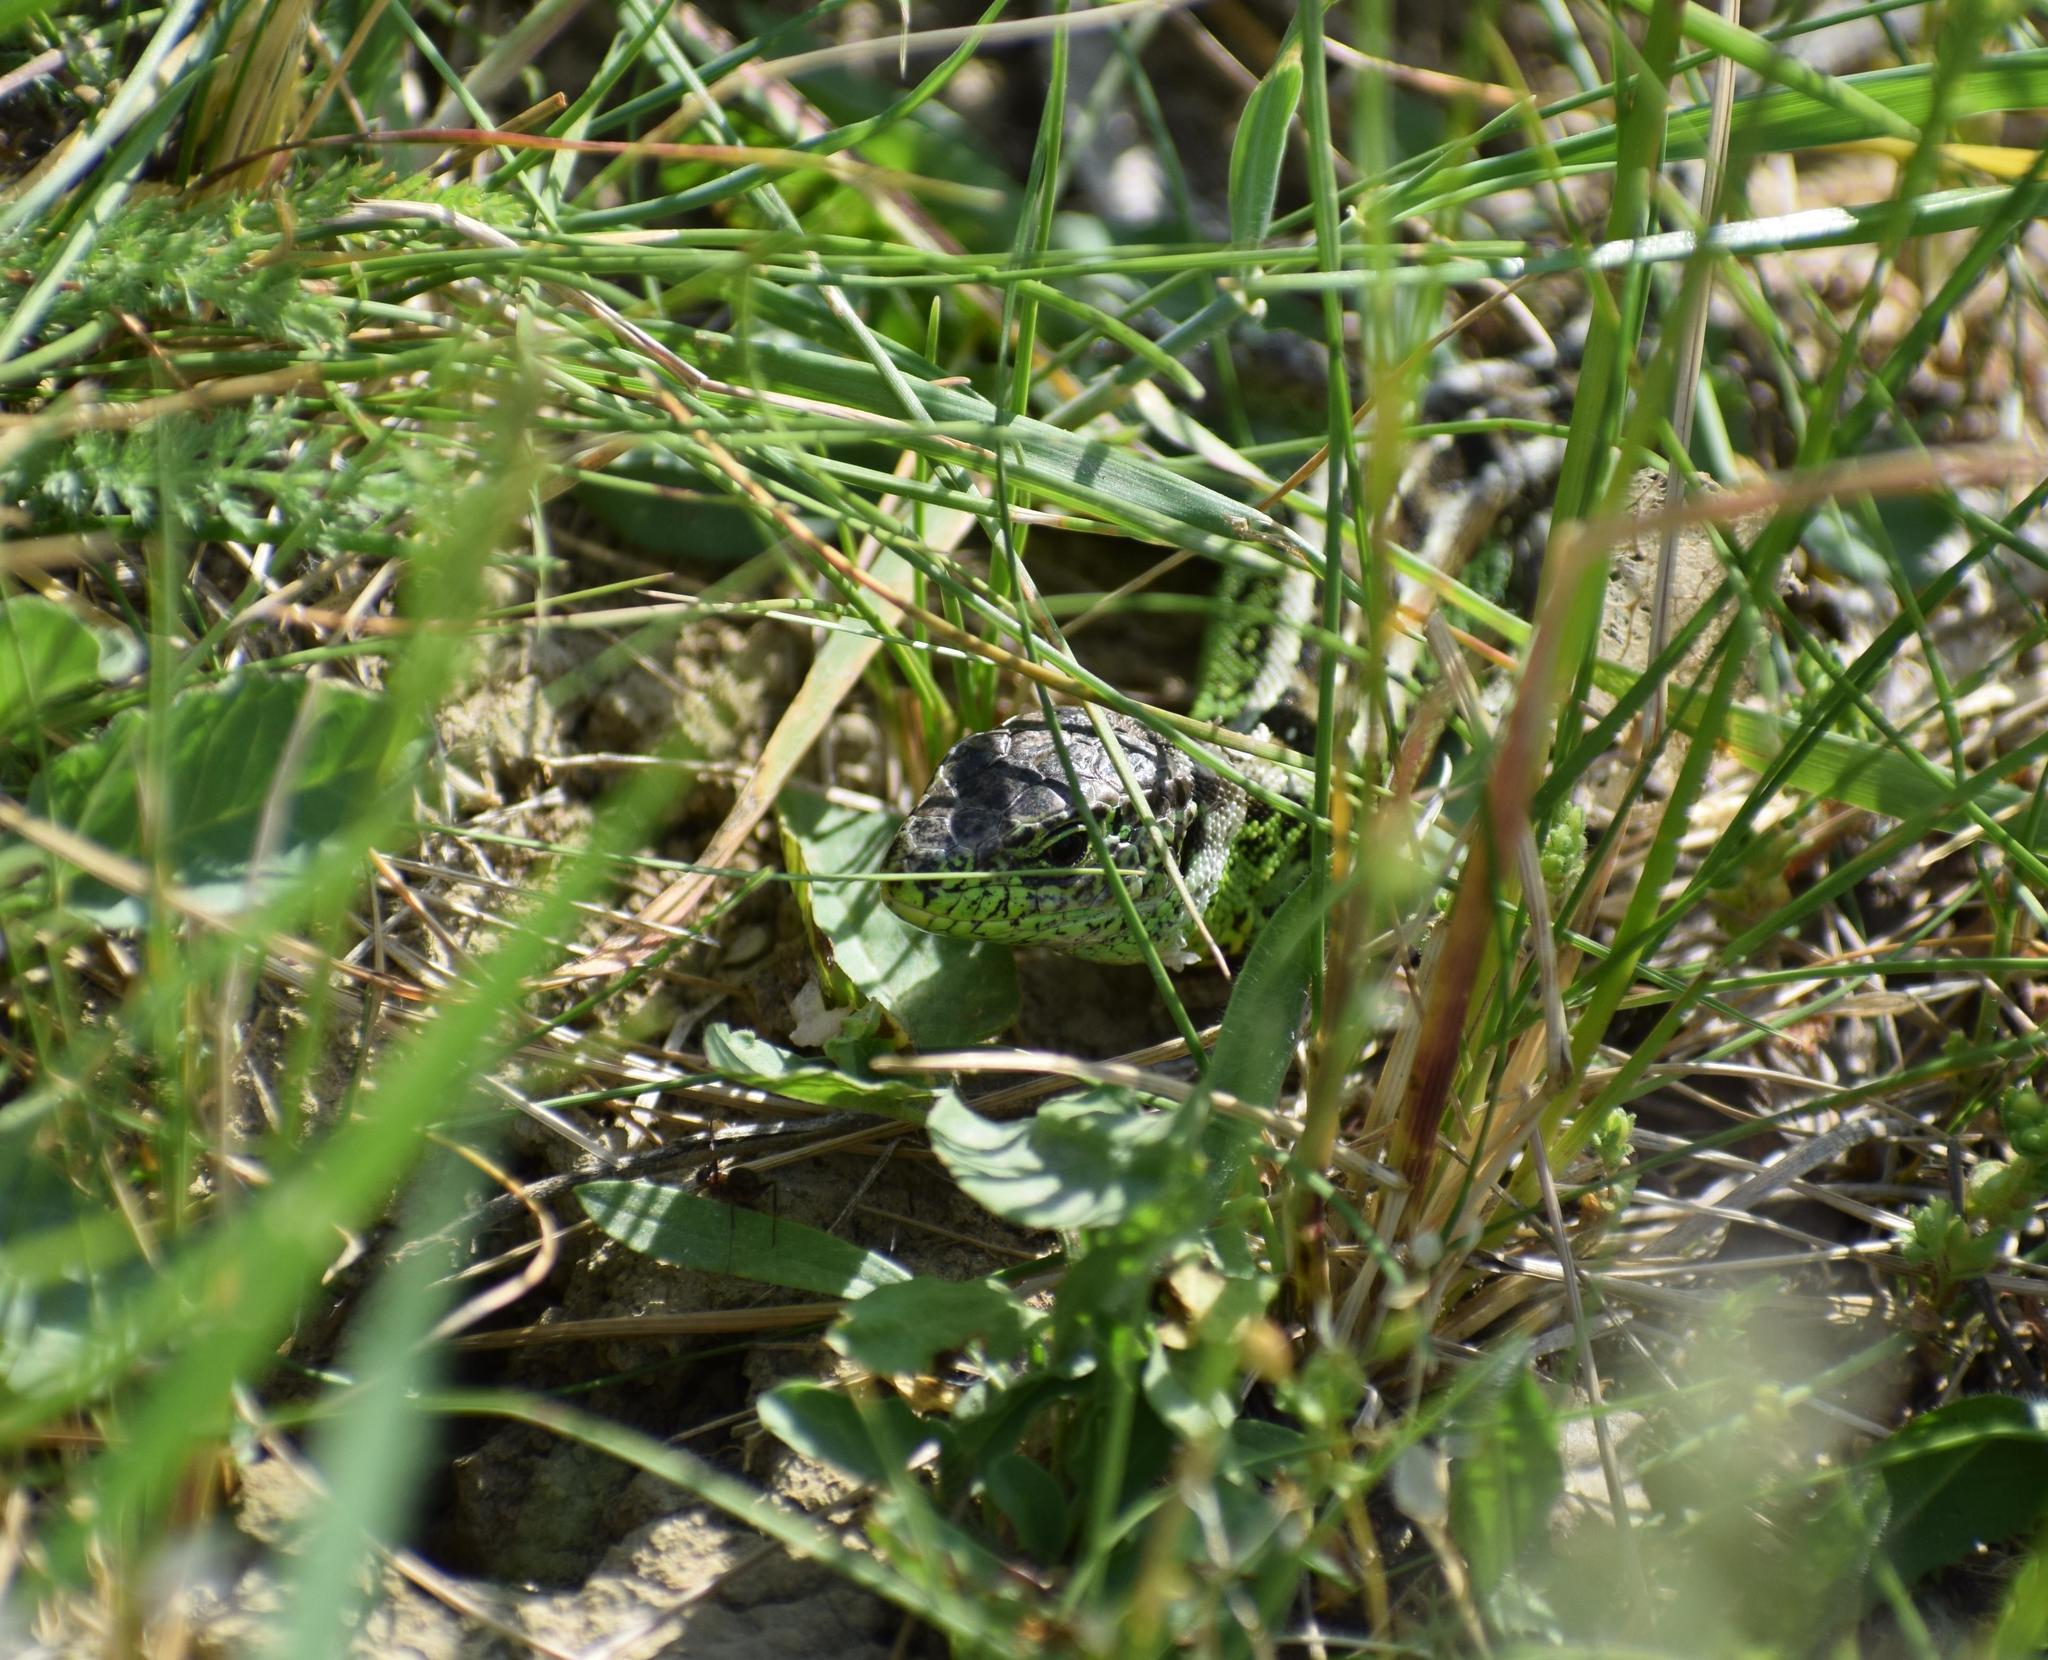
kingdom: Animalia
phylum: Chordata
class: Squamata
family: Lacertidae
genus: Lacerta
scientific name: Lacerta agilis
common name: Sand lizard
